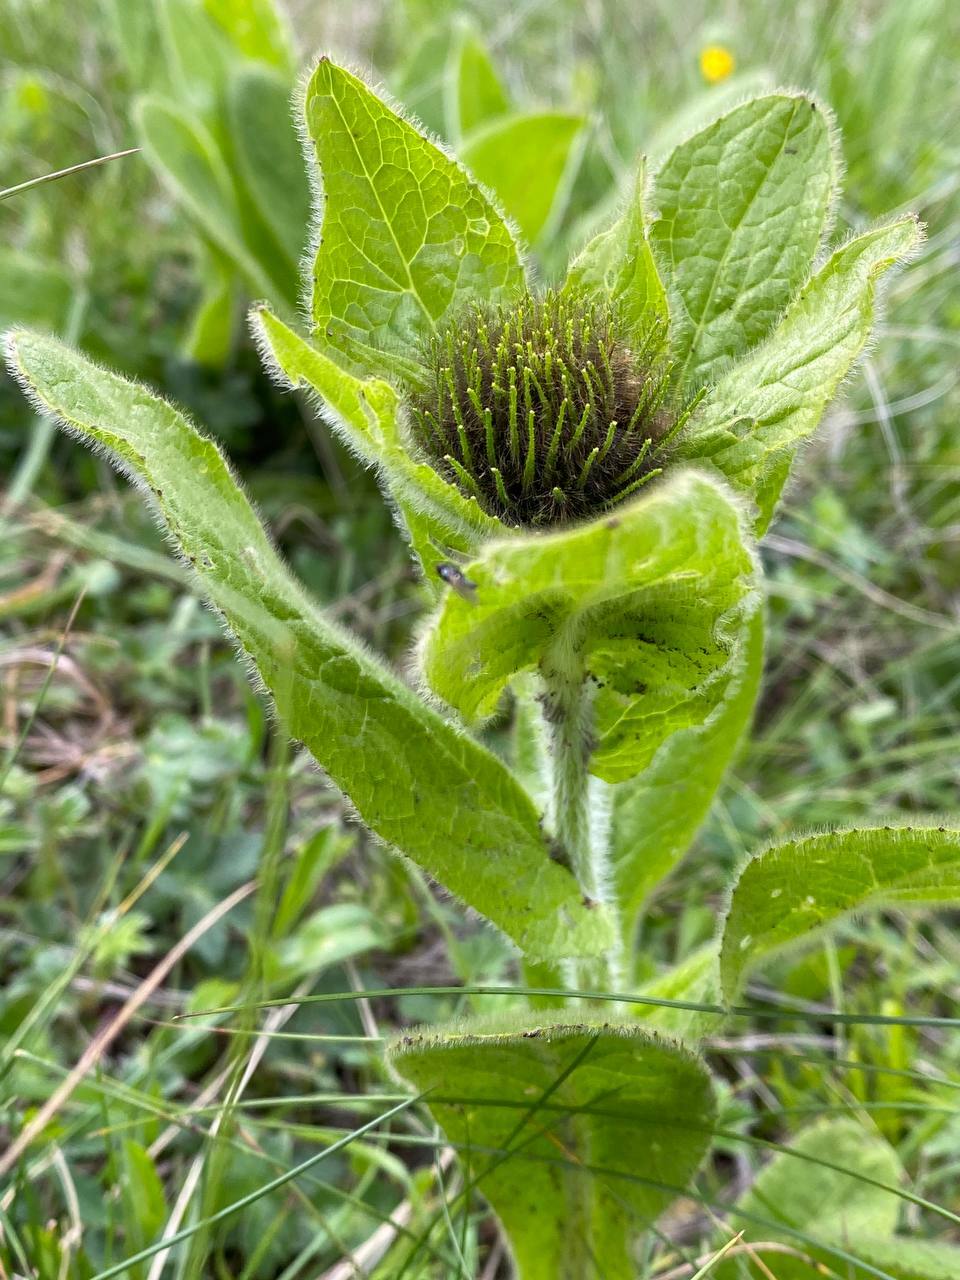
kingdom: Plantae
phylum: Tracheophyta
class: Magnoliopsida
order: Asterales
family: Asteraceae
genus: Pentanema
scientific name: Pentanema orientale
